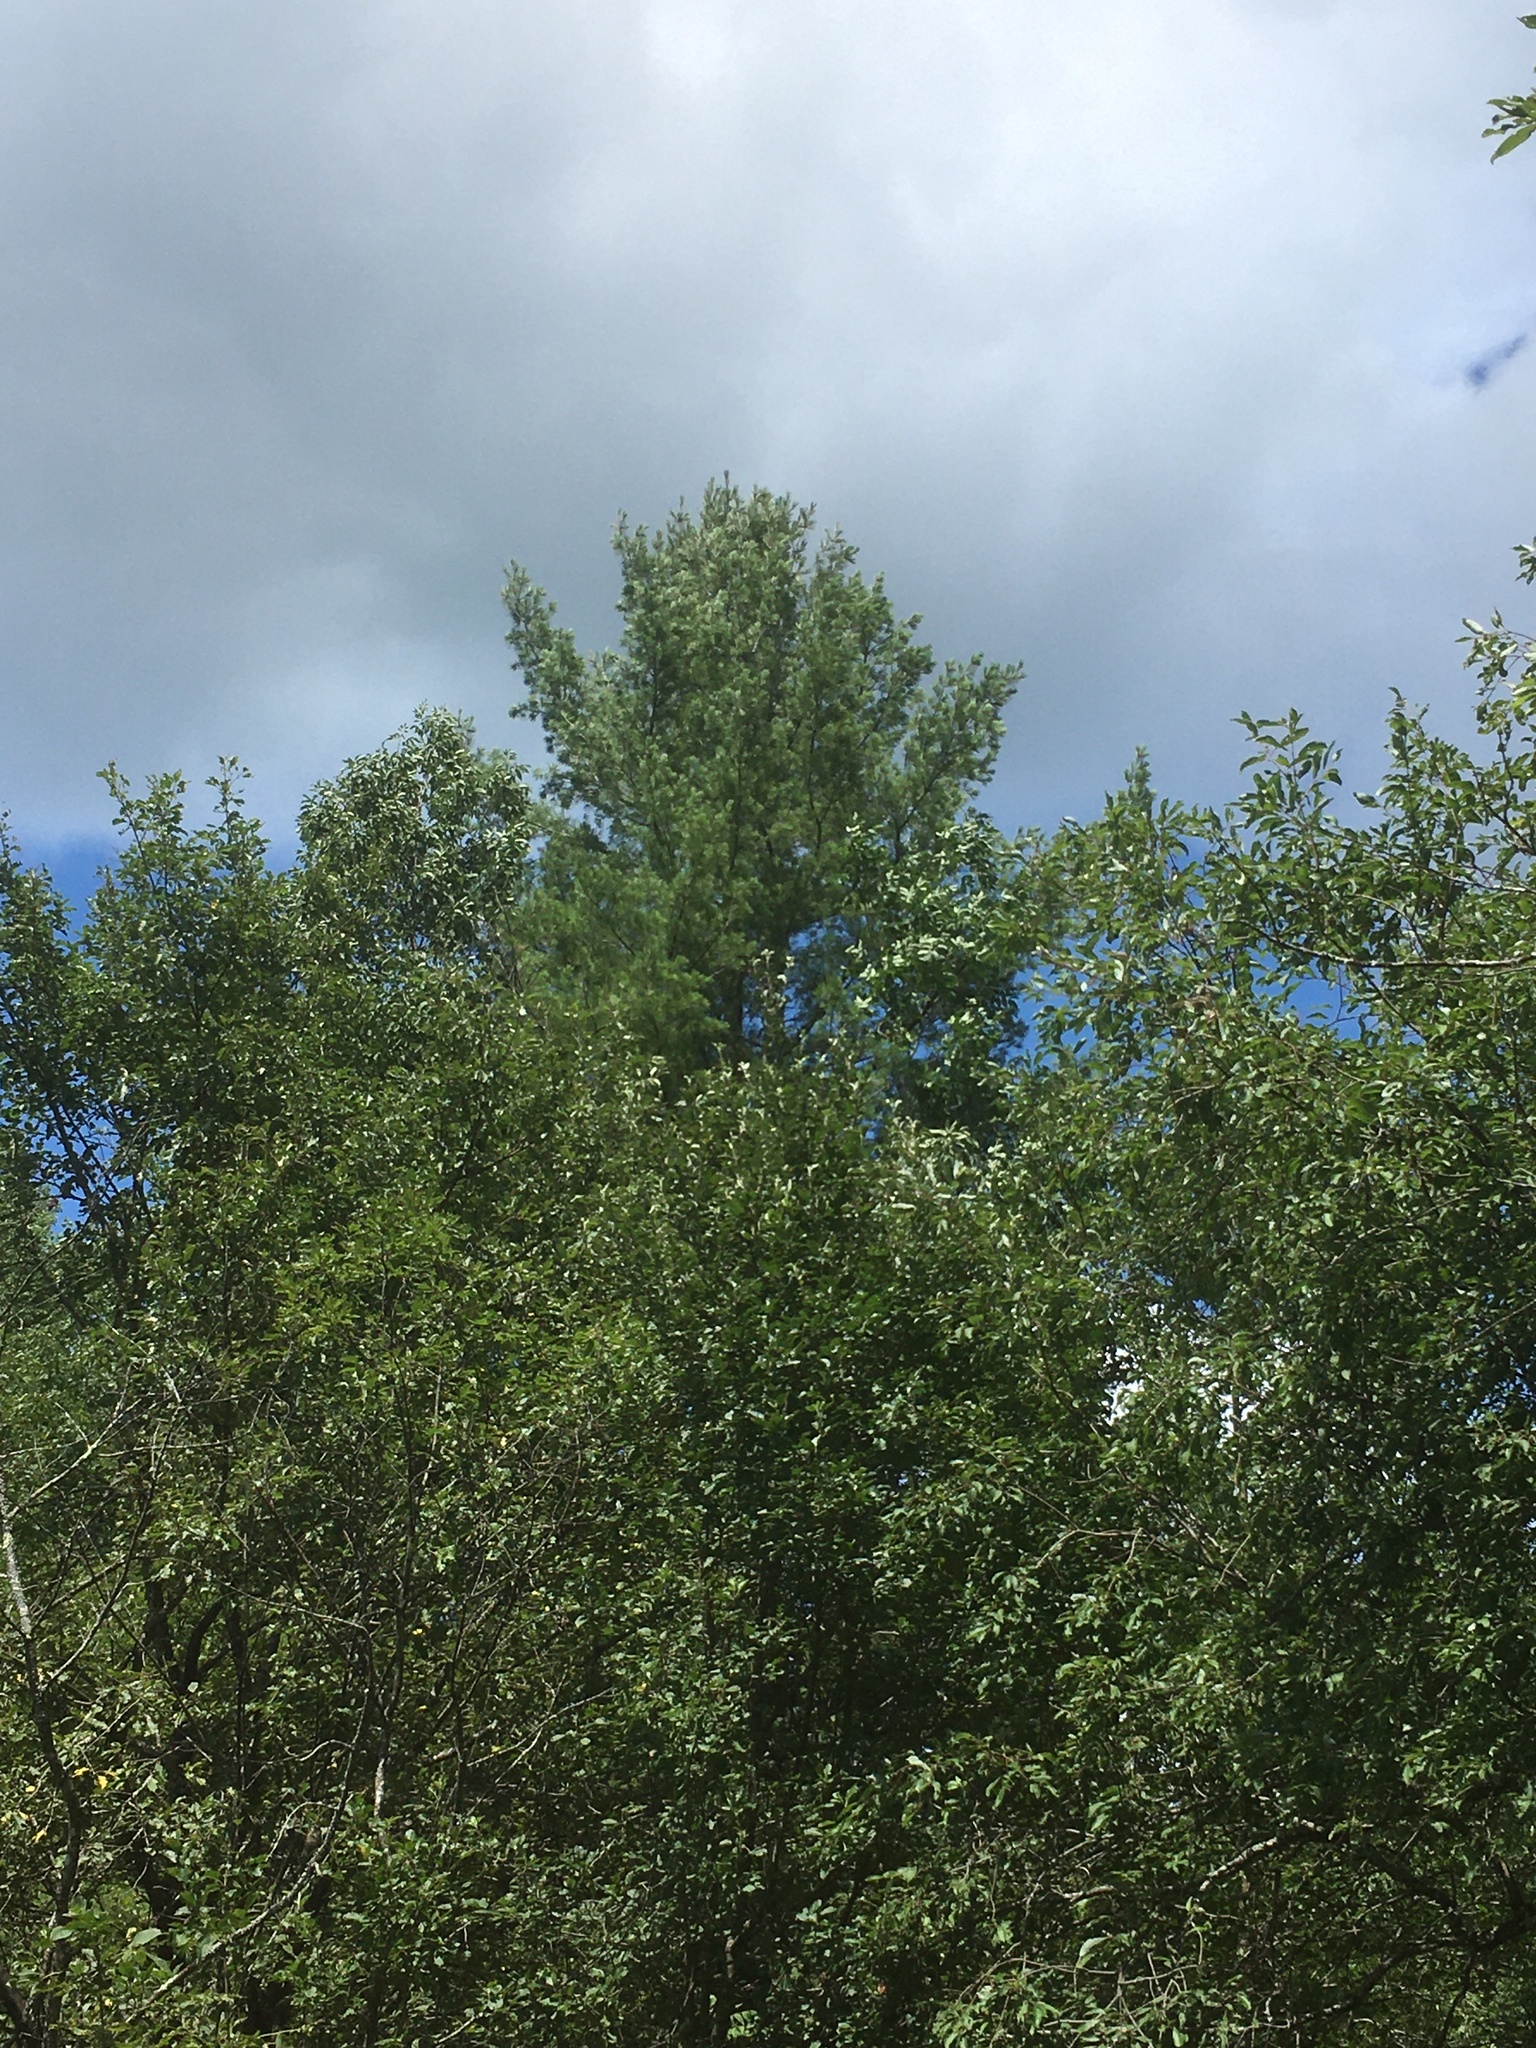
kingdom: Plantae
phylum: Tracheophyta
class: Pinopsida
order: Pinales
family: Pinaceae
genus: Pinus
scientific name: Pinus strobus
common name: Weymouth pine
